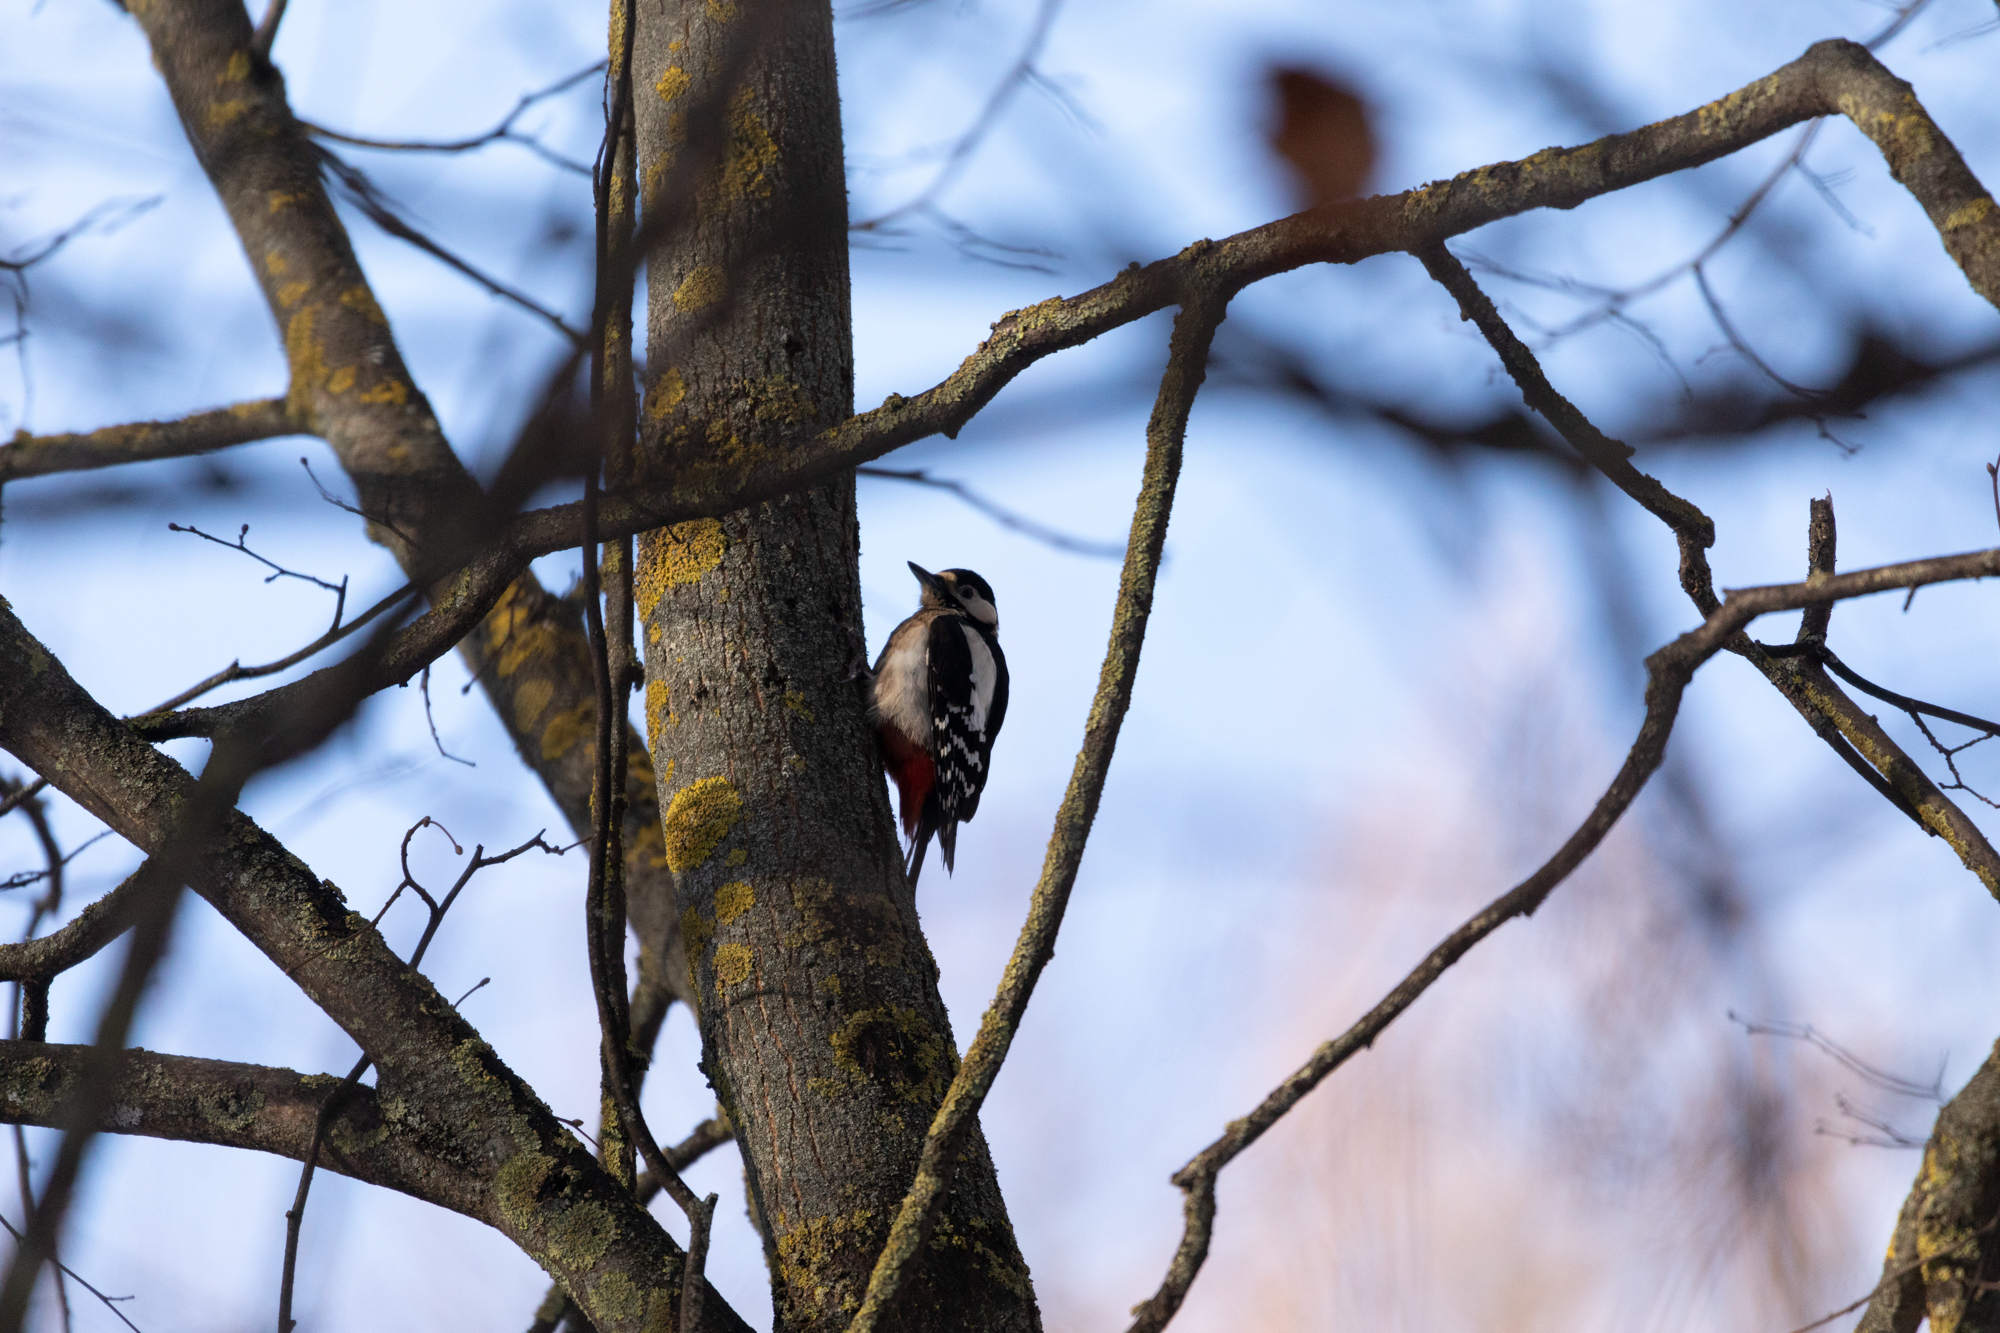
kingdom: Animalia
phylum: Chordata
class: Aves
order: Piciformes
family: Picidae
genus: Dendrocopos
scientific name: Dendrocopos major
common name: Great spotted woodpecker
